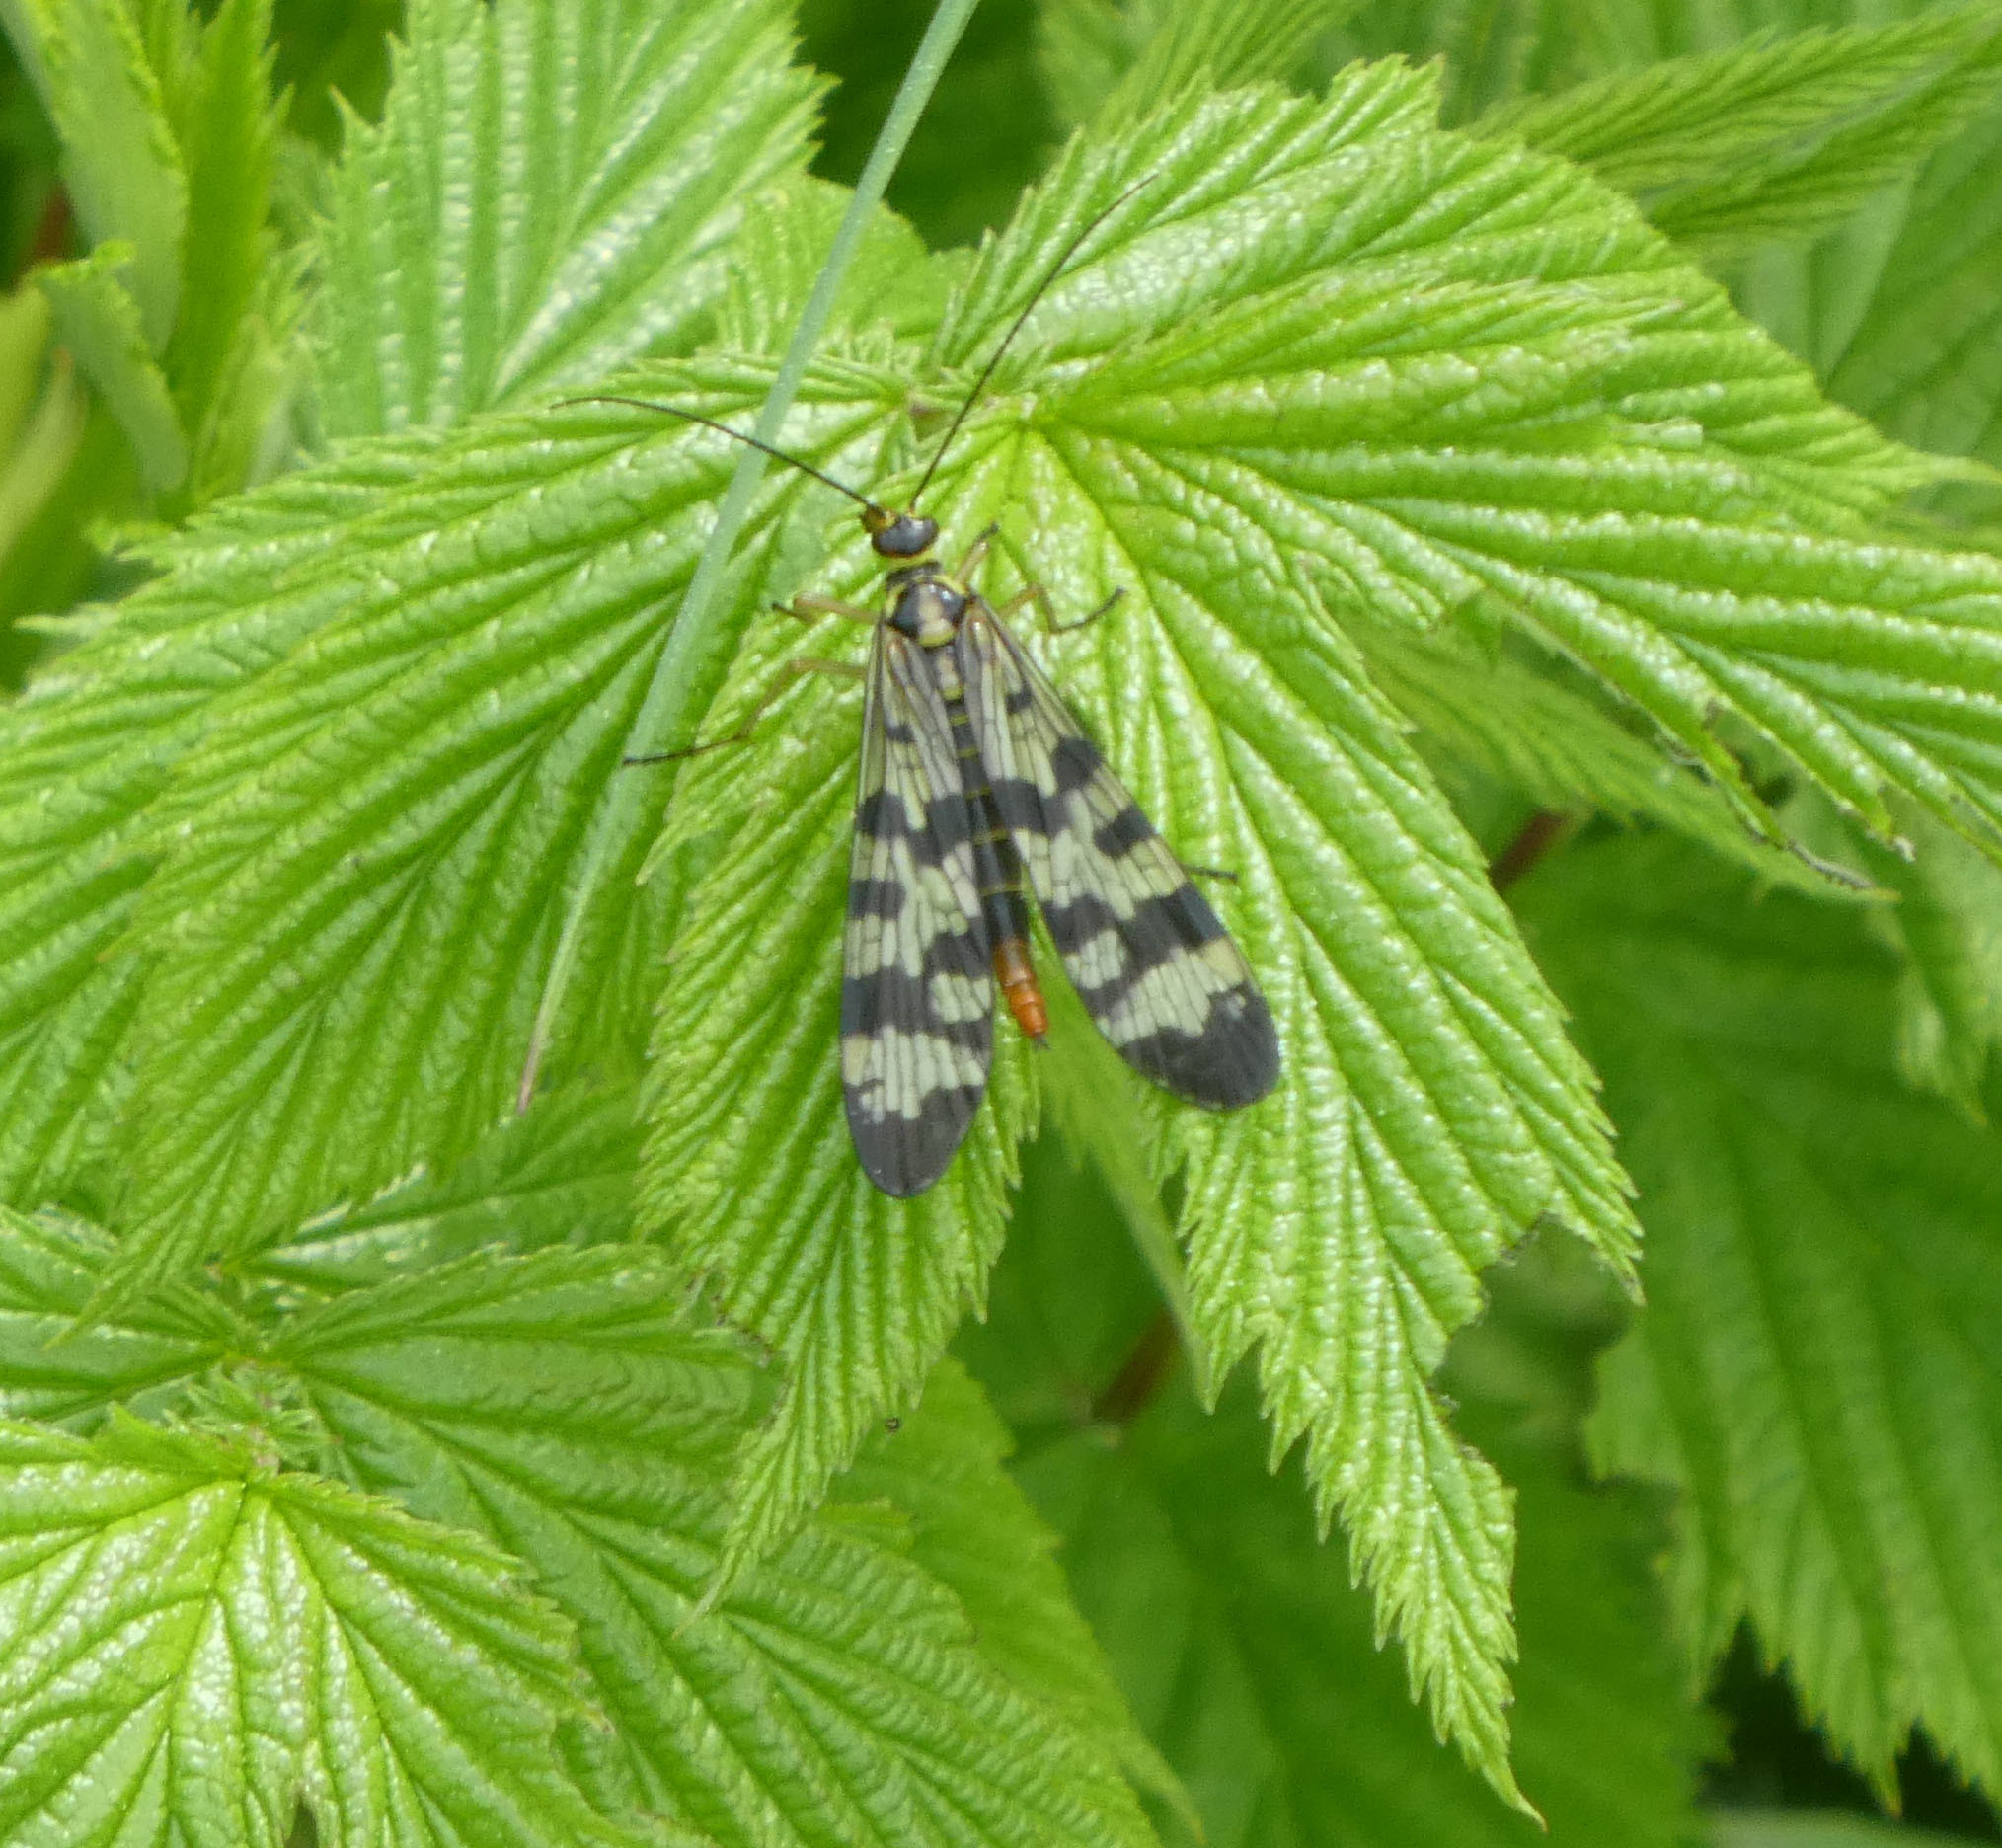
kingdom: Animalia
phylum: Arthropoda
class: Insecta
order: Mecoptera
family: Panorpidae
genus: Panorpa
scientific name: Panorpa communis
